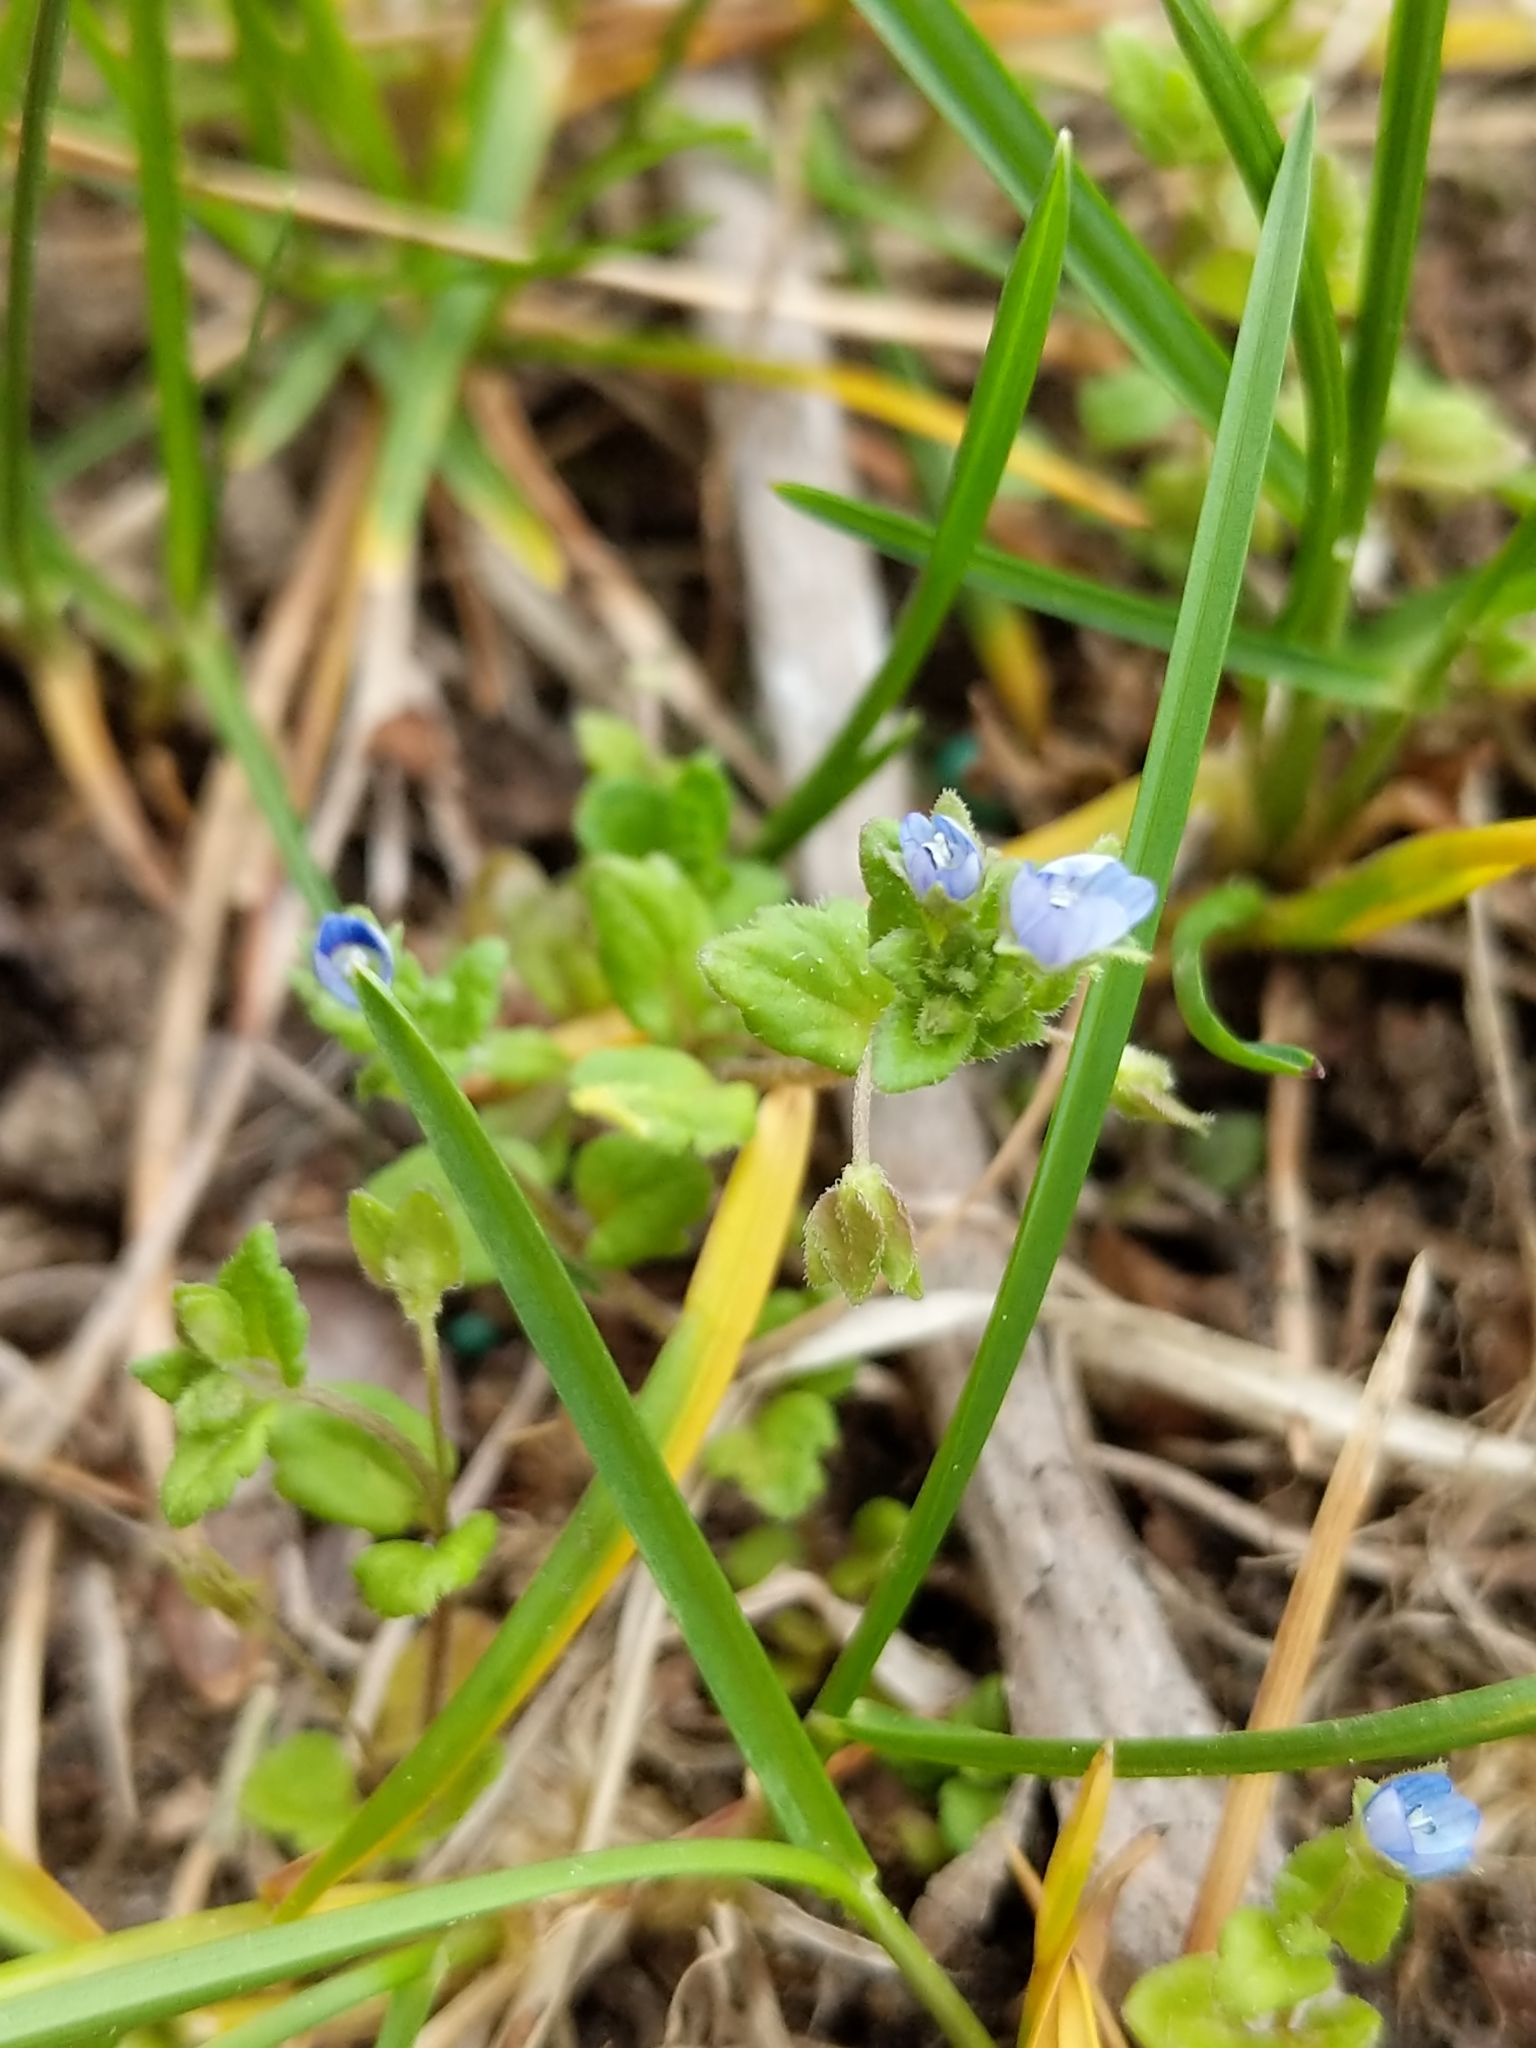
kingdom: Plantae
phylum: Tracheophyta
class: Magnoliopsida
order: Lamiales
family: Plantaginaceae
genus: Veronica
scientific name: Veronica polita
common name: Grey field-speedwell
